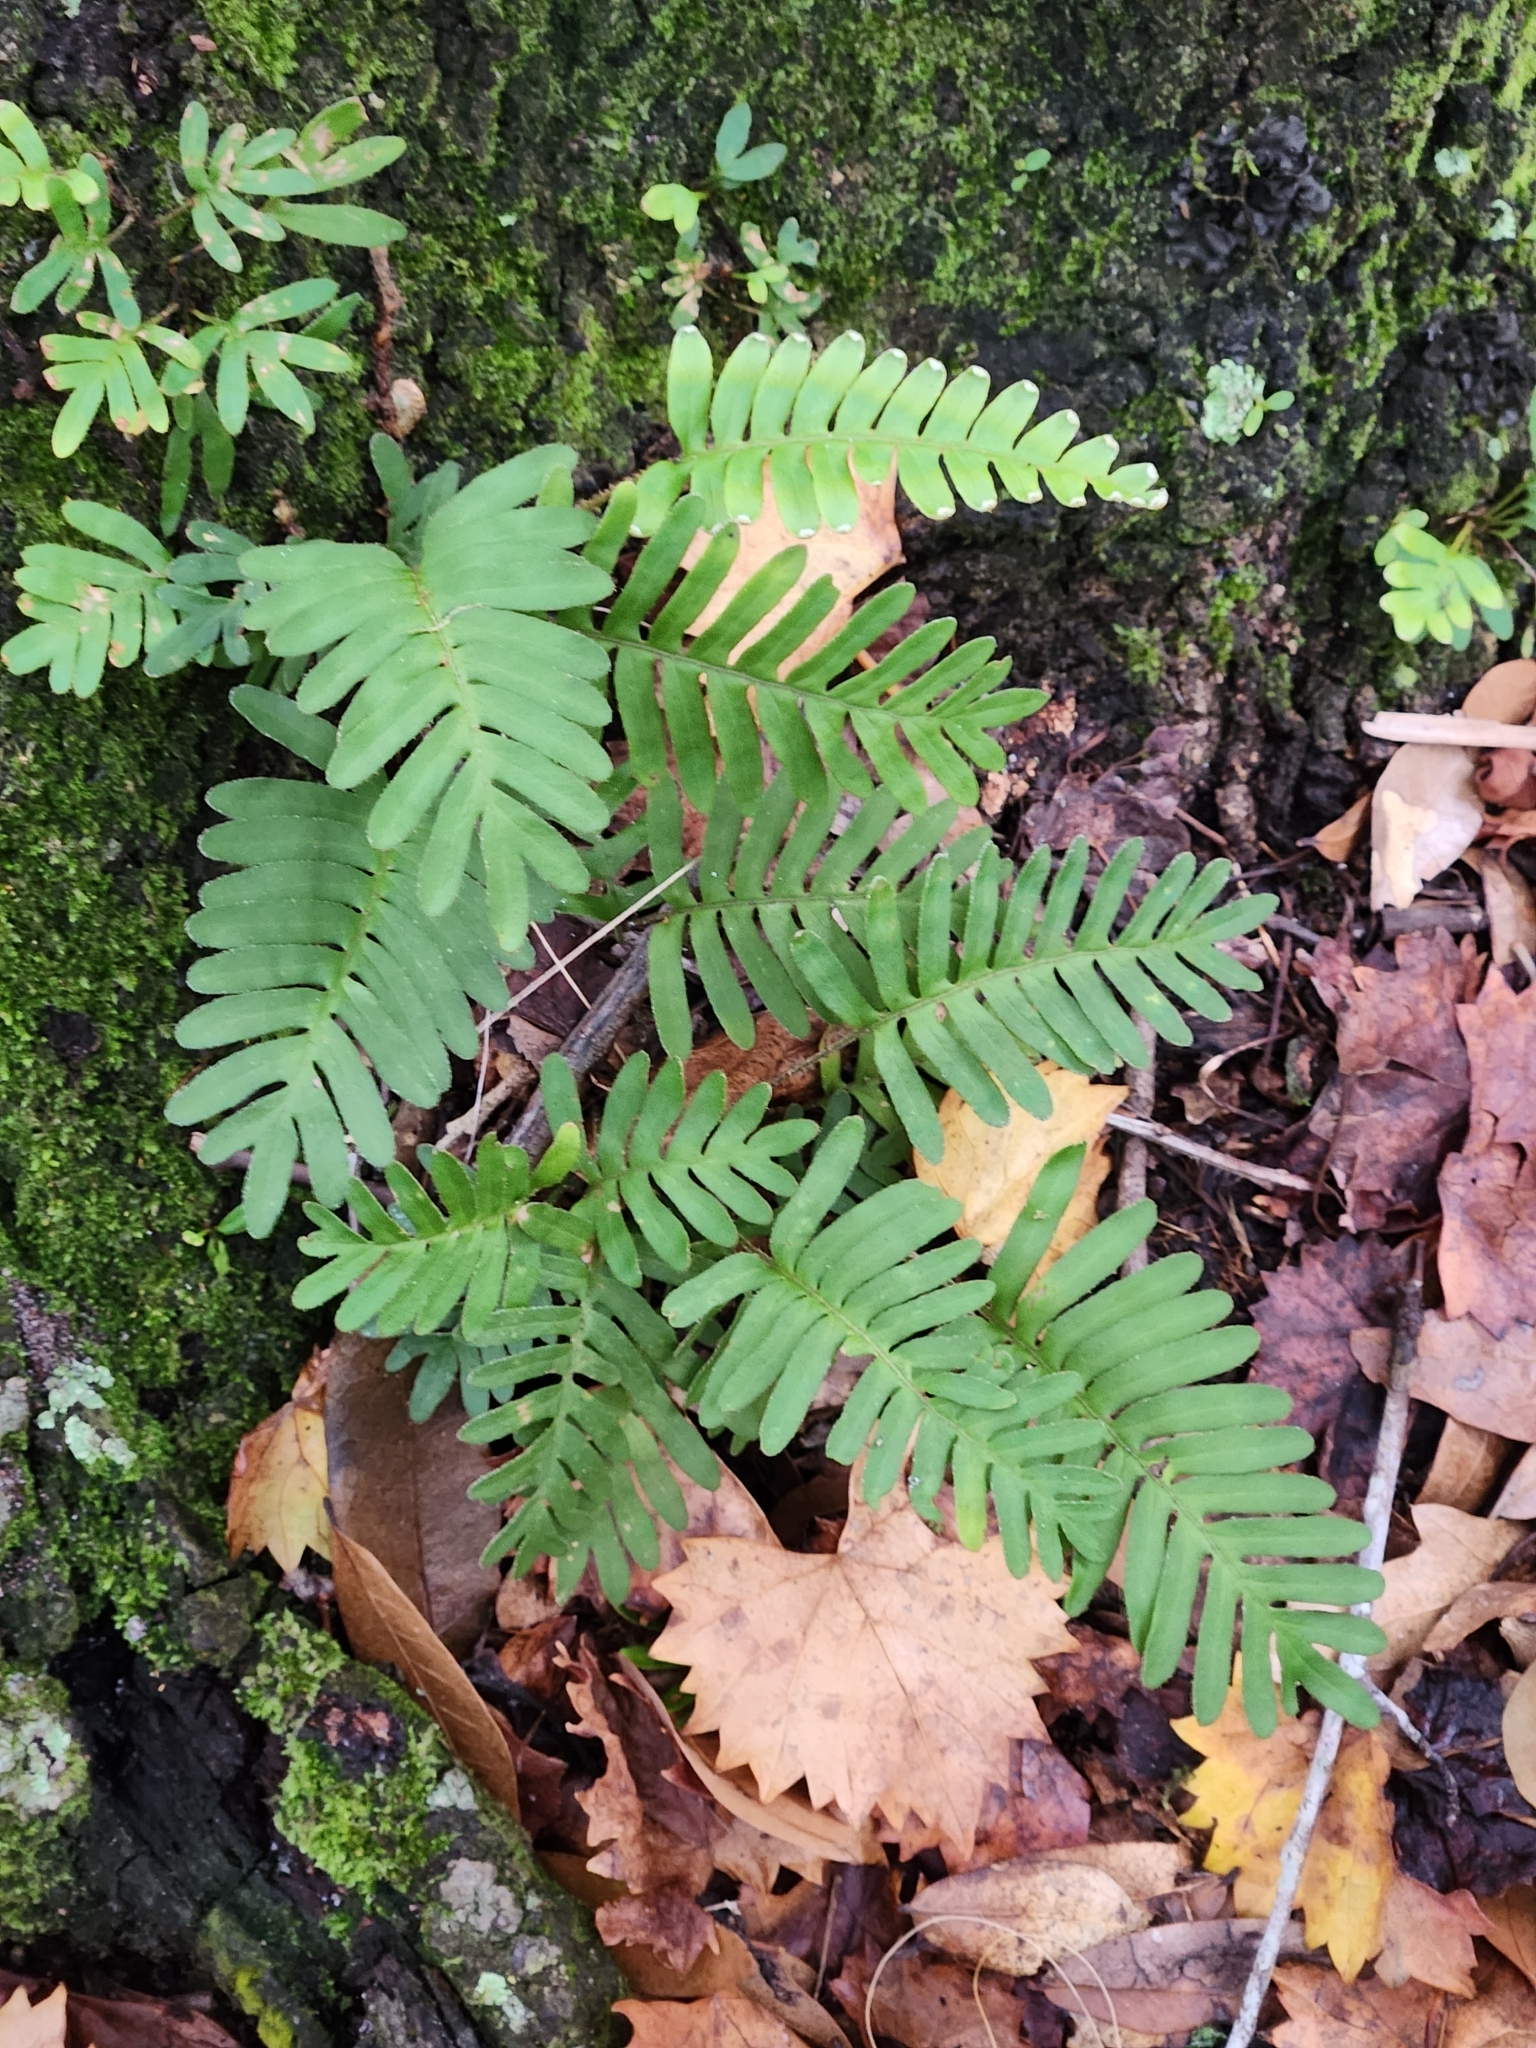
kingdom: Plantae
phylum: Tracheophyta
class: Polypodiopsida
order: Polypodiales
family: Polypodiaceae
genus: Pleopeltis
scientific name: Pleopeltis michauxiana
